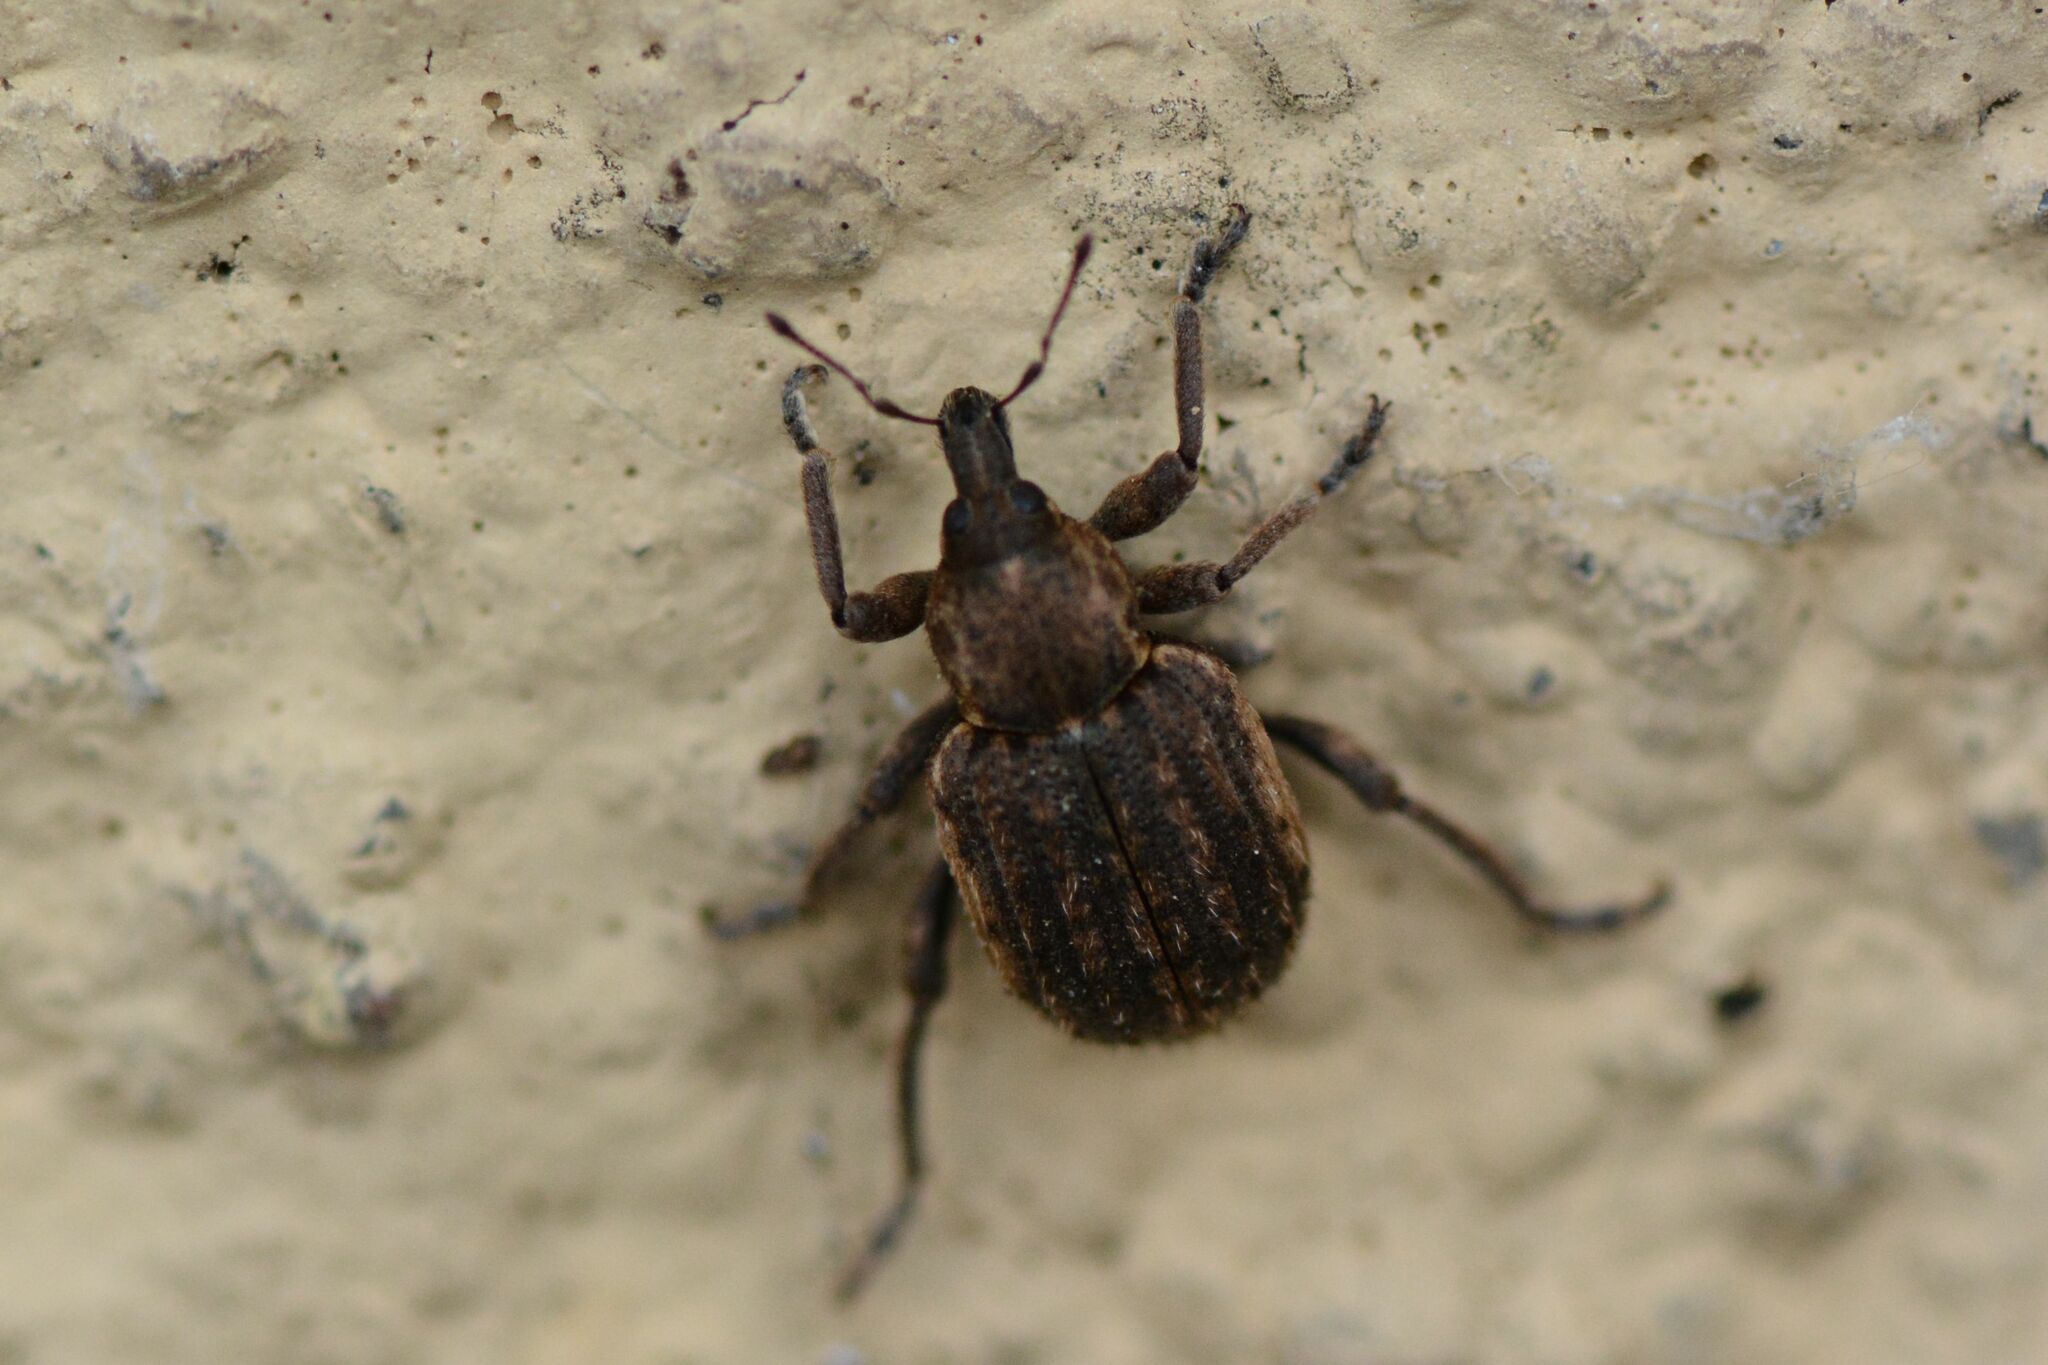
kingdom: Animalia
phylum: Arthropoda
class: Insecta
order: Coleoptera
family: Curculionidae
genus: Brachypera
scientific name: Brachypera zoilus
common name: Clover leaf weevil
